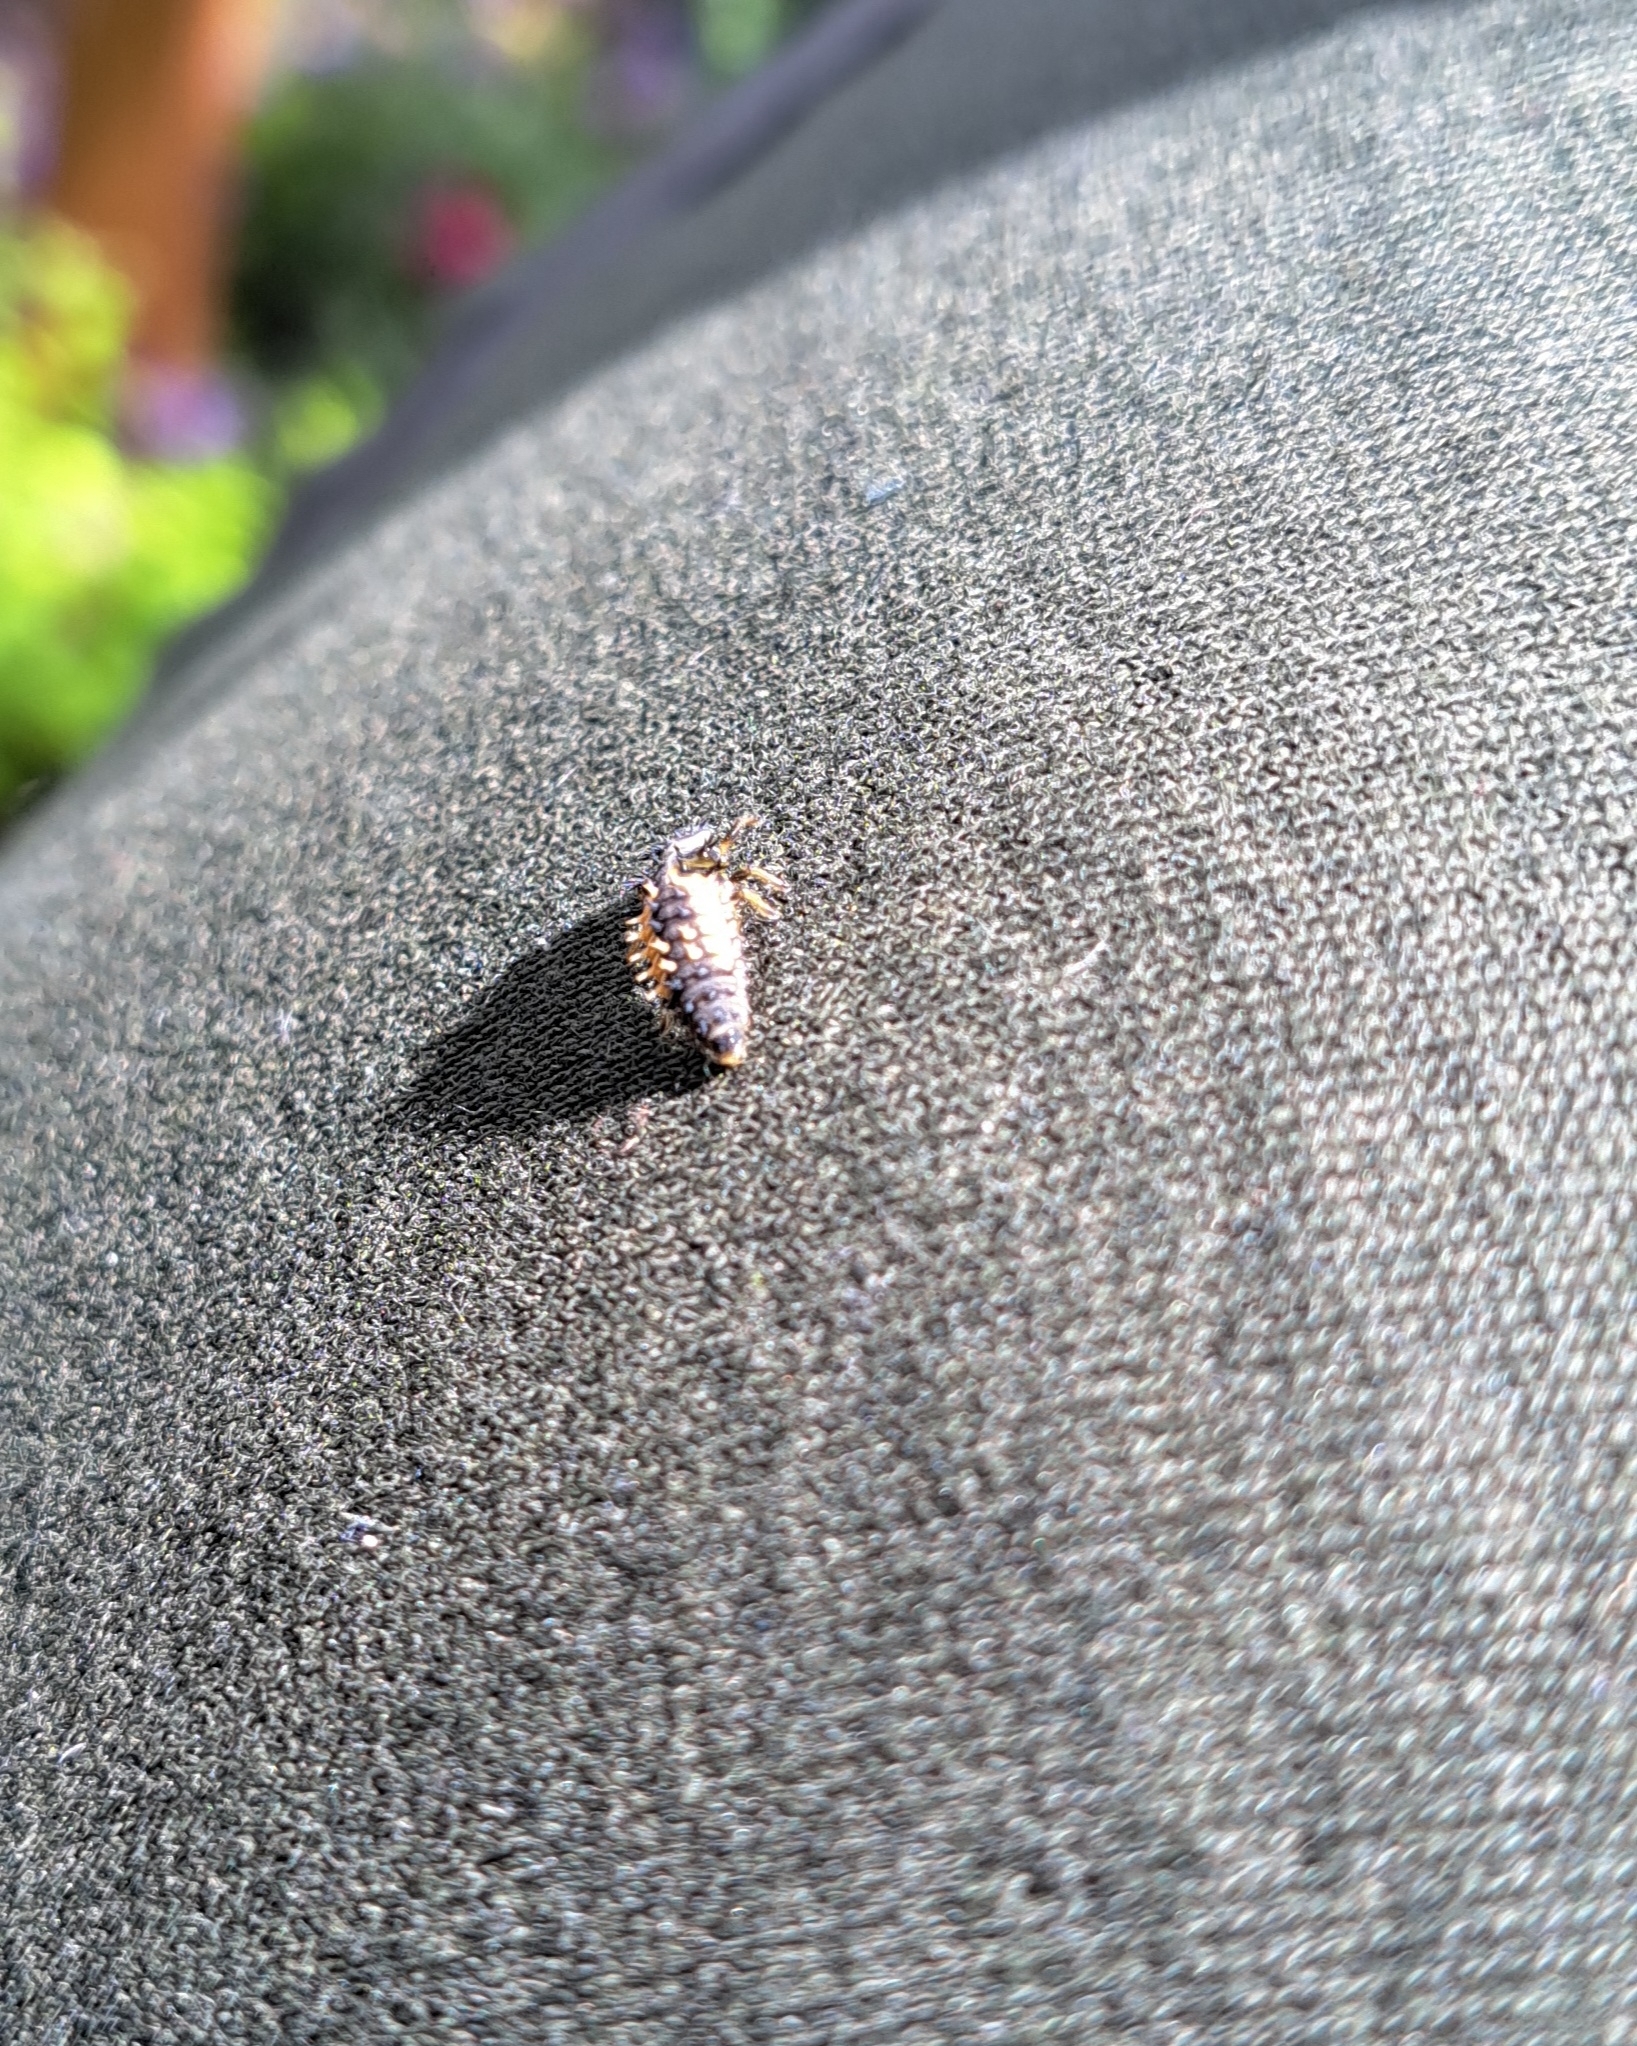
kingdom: Animalia
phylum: Arthropoda
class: Insecta
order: Coleoptera
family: Coccinellidae
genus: Harmonia
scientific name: Harmonia axyridis
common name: Harlequin ladybird
